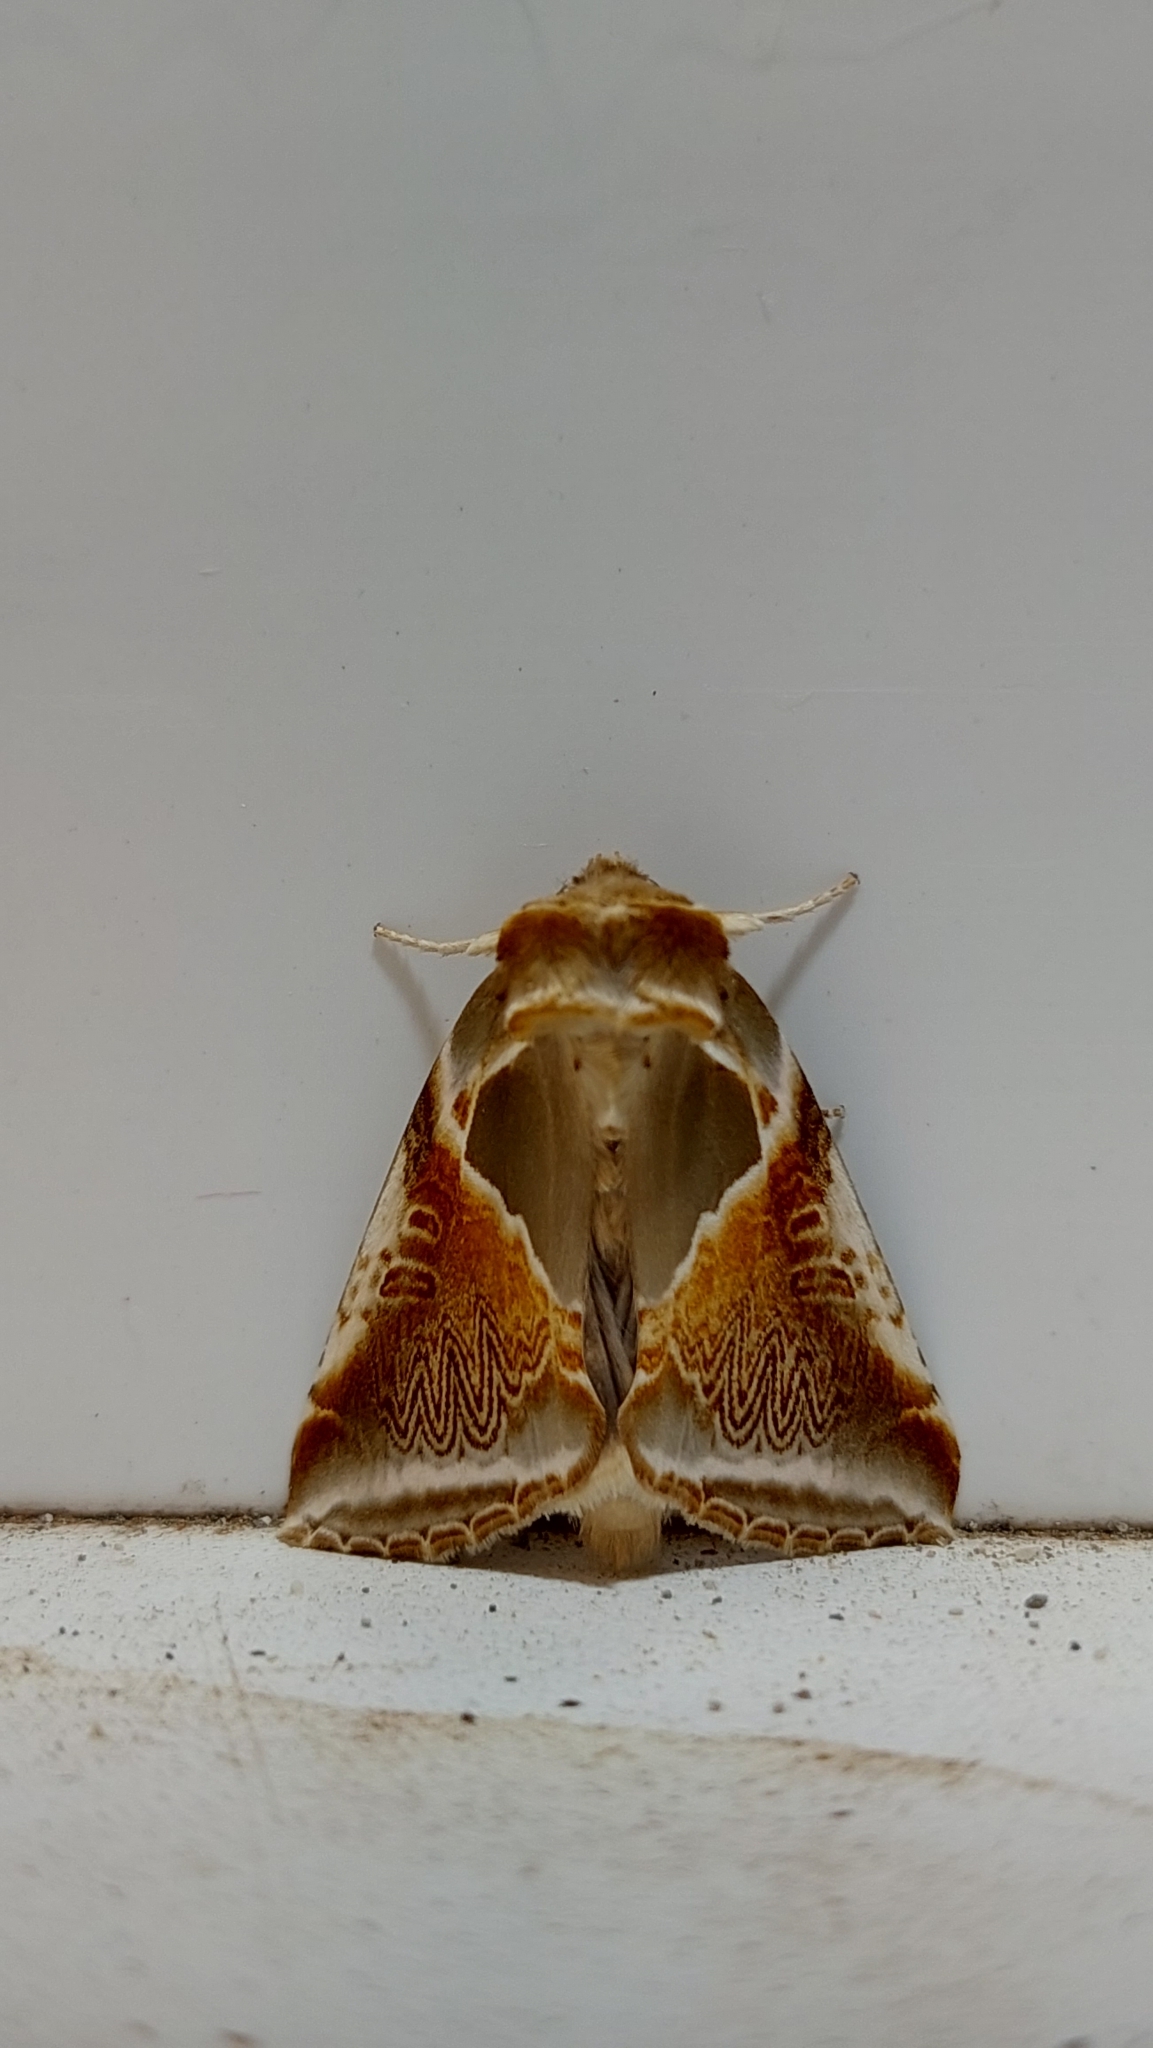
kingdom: Animalia
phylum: Arthropoda
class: Insecta
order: Lepidoptera
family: Drepanidae
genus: Habrosyne
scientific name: Habrosyne pyritoides
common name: Buff arches
